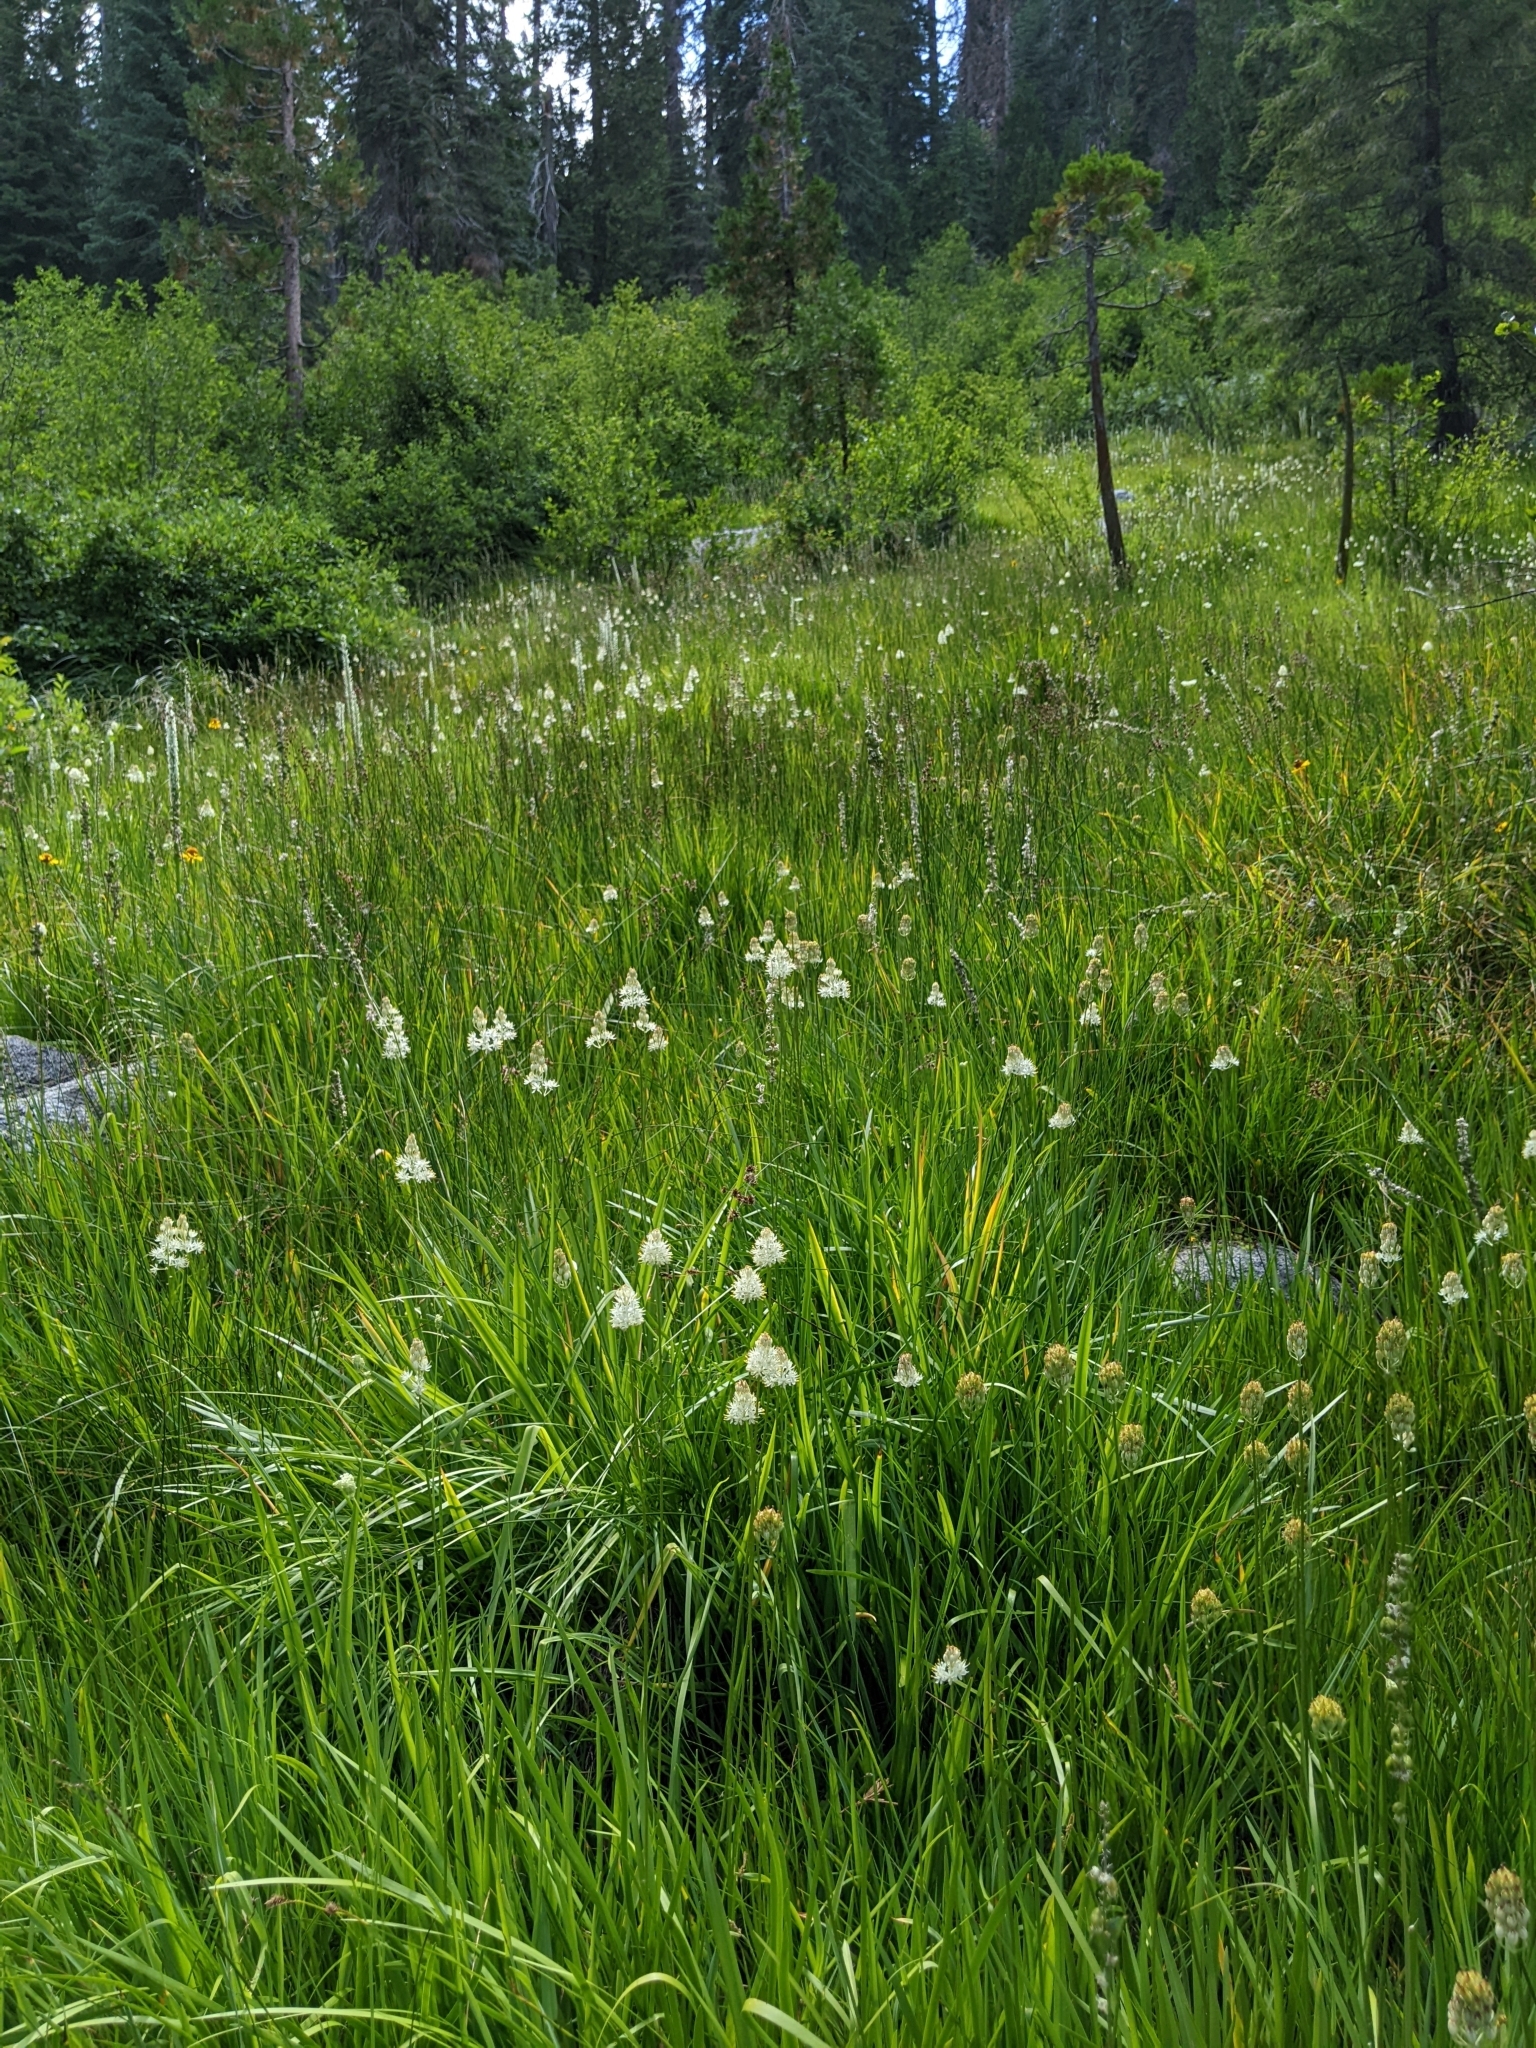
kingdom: Plantae
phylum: Tracheophyta
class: Liliopsida
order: Alismatales
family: Tofieldiaceae
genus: Triantha
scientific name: Triantha occidentalis
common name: Western false asphodel
